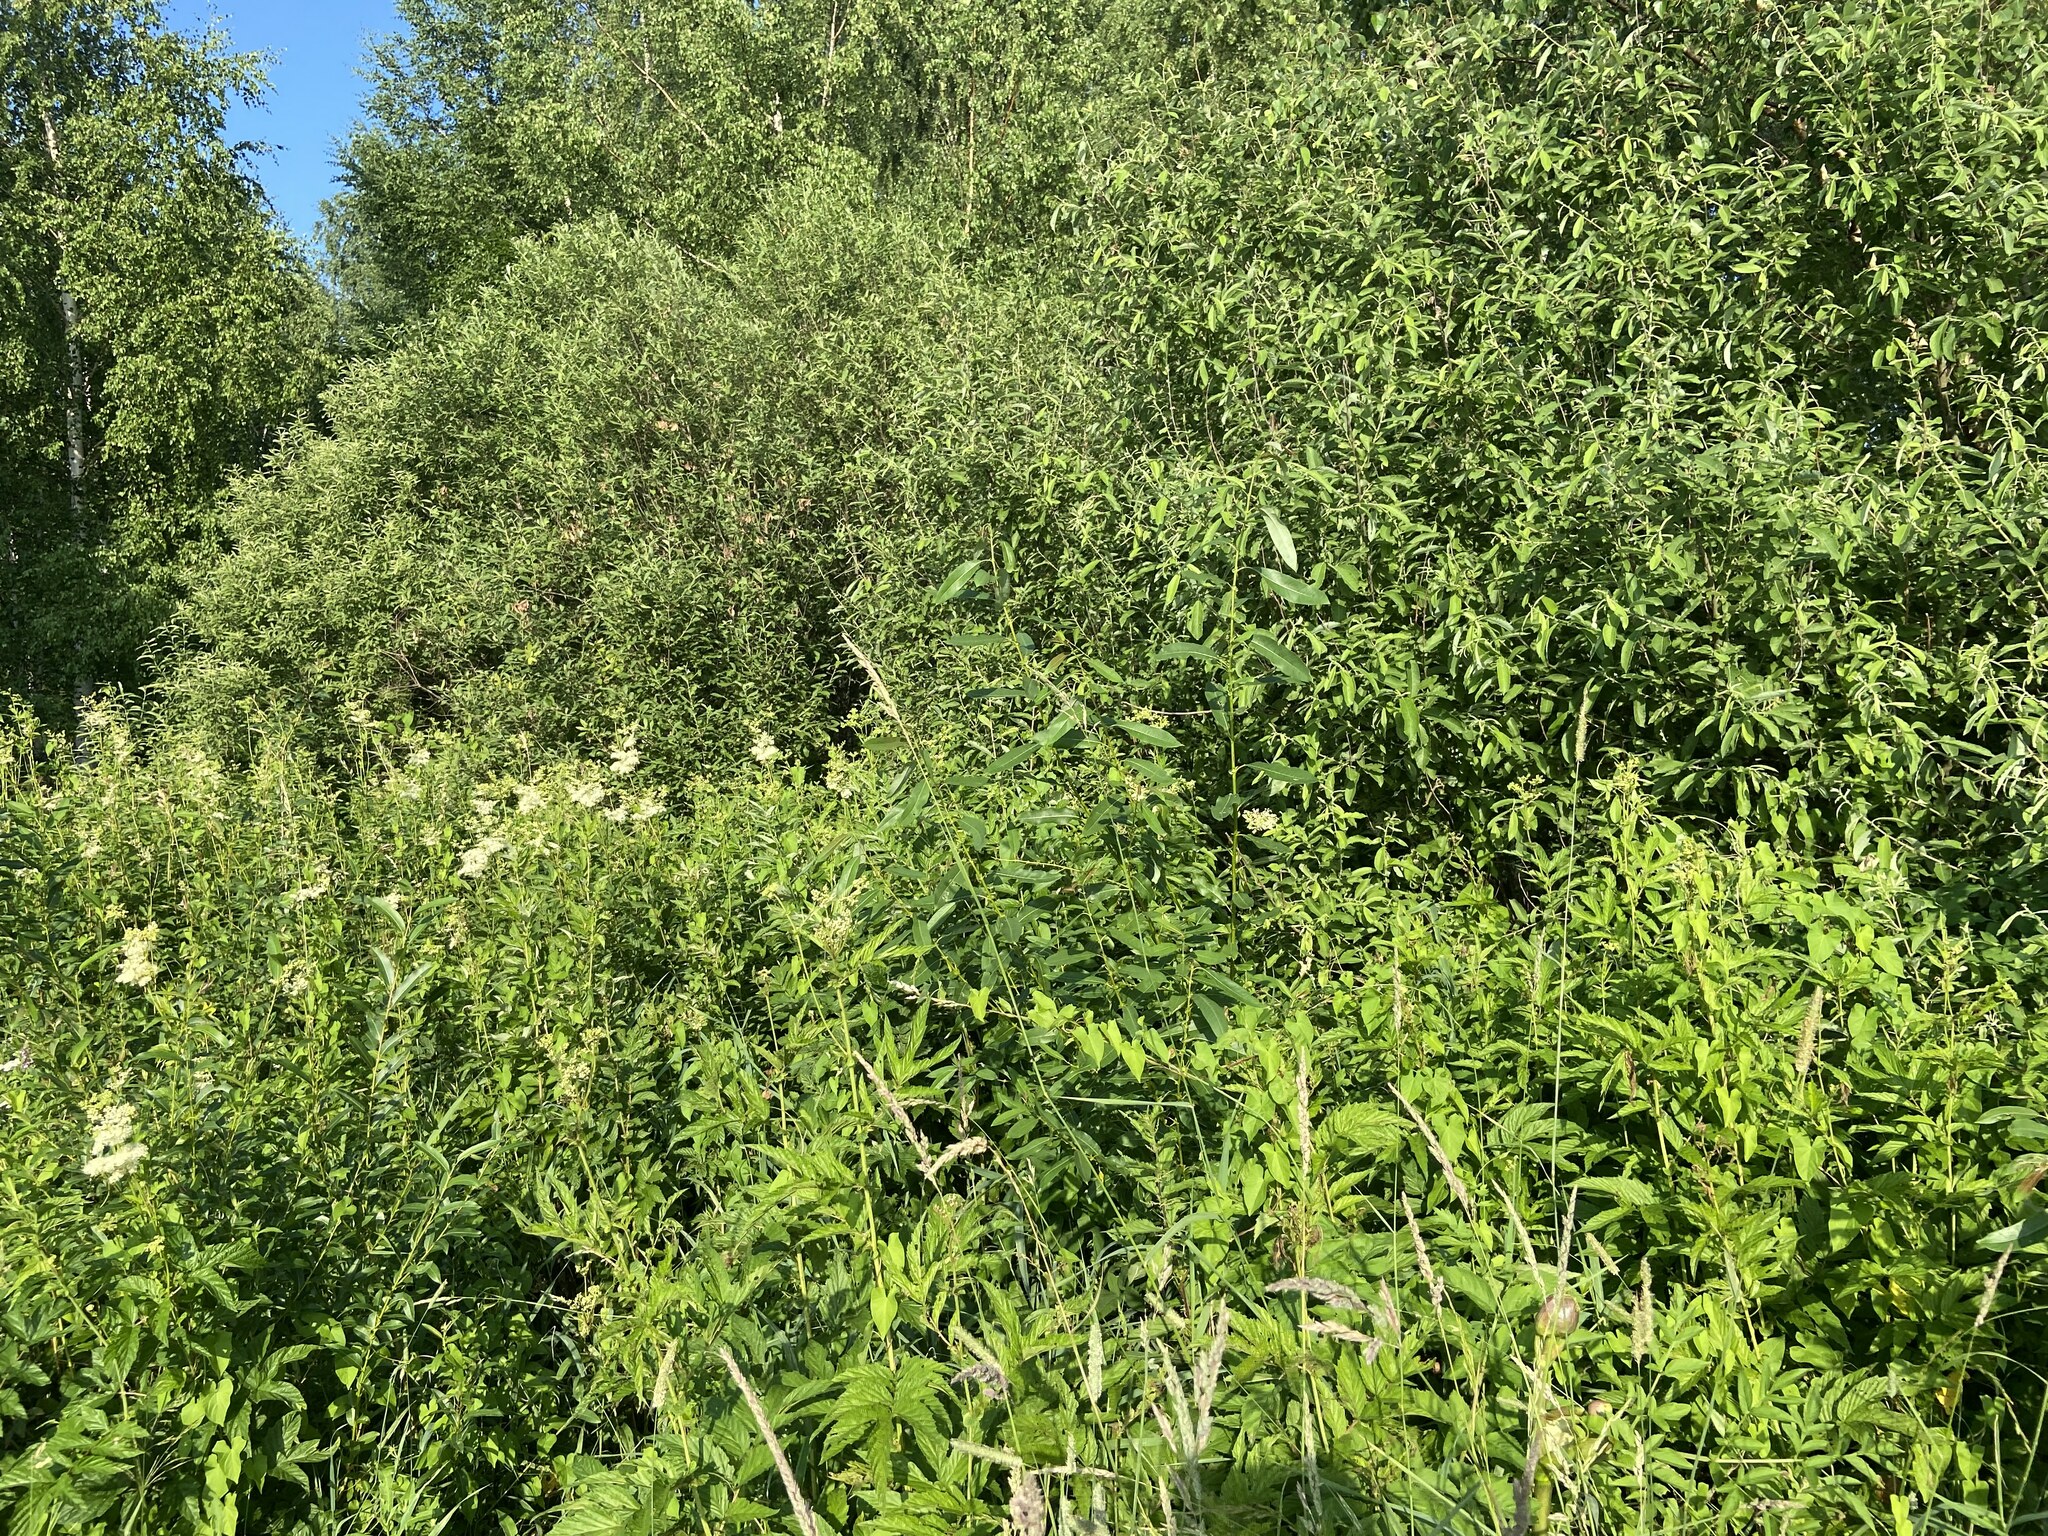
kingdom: Plantae
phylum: Tracheophyta
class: Magnoliopsida
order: Rosales
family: Rosaceae
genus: Filipendula
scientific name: Filipendula ulmaria
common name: Meadowsweet
